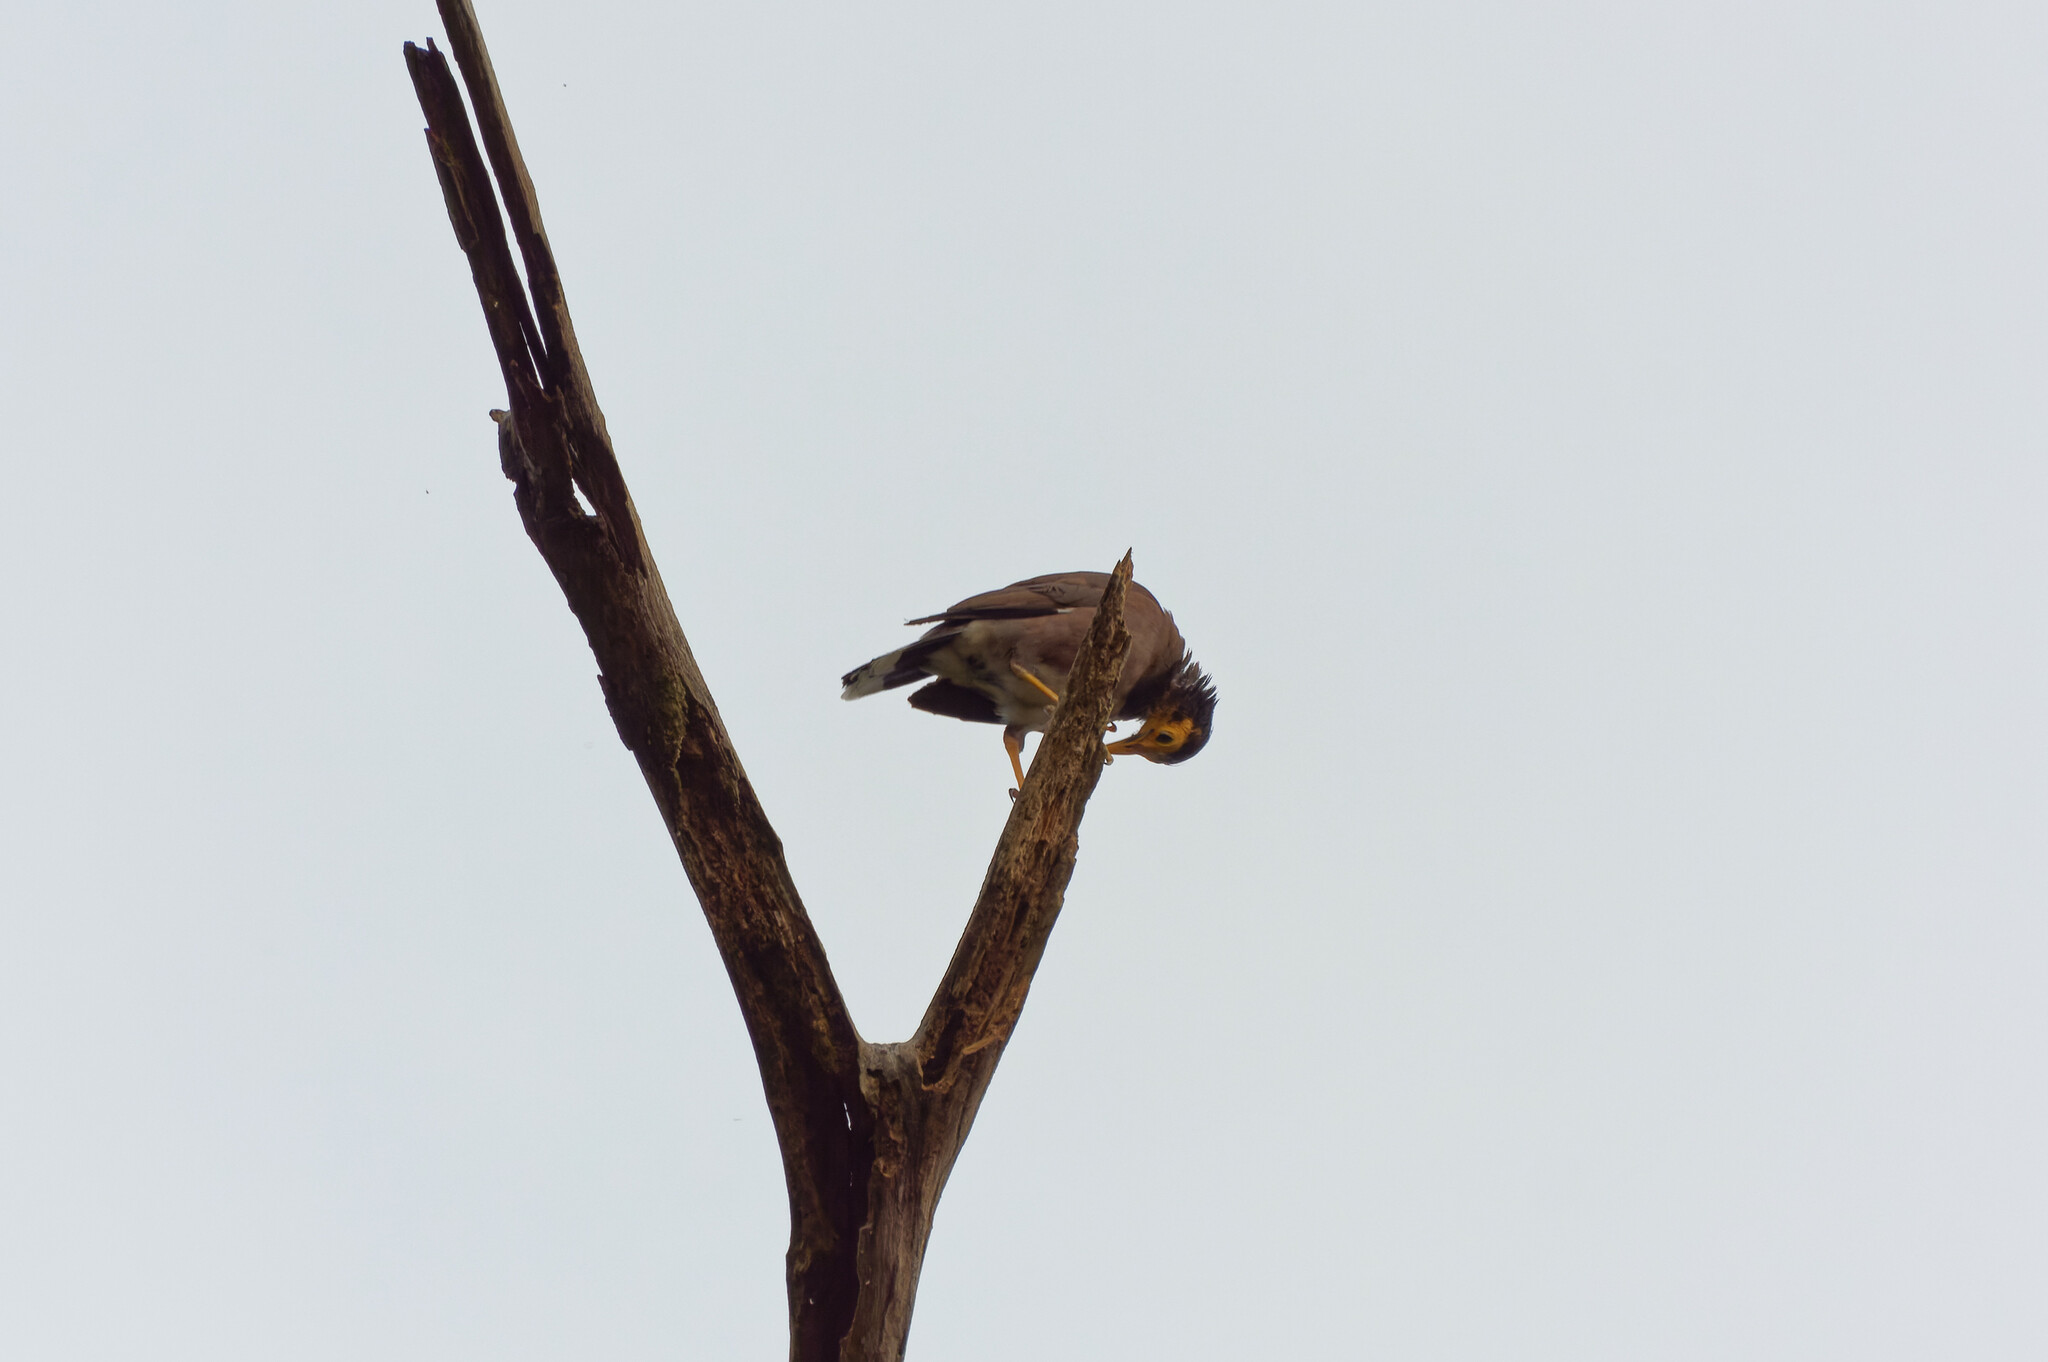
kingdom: Animalia
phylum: Chordata
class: Aves
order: Passeriformes
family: Sturnidae
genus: Acridotheres
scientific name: Acridotheres tristis
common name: Common myna
